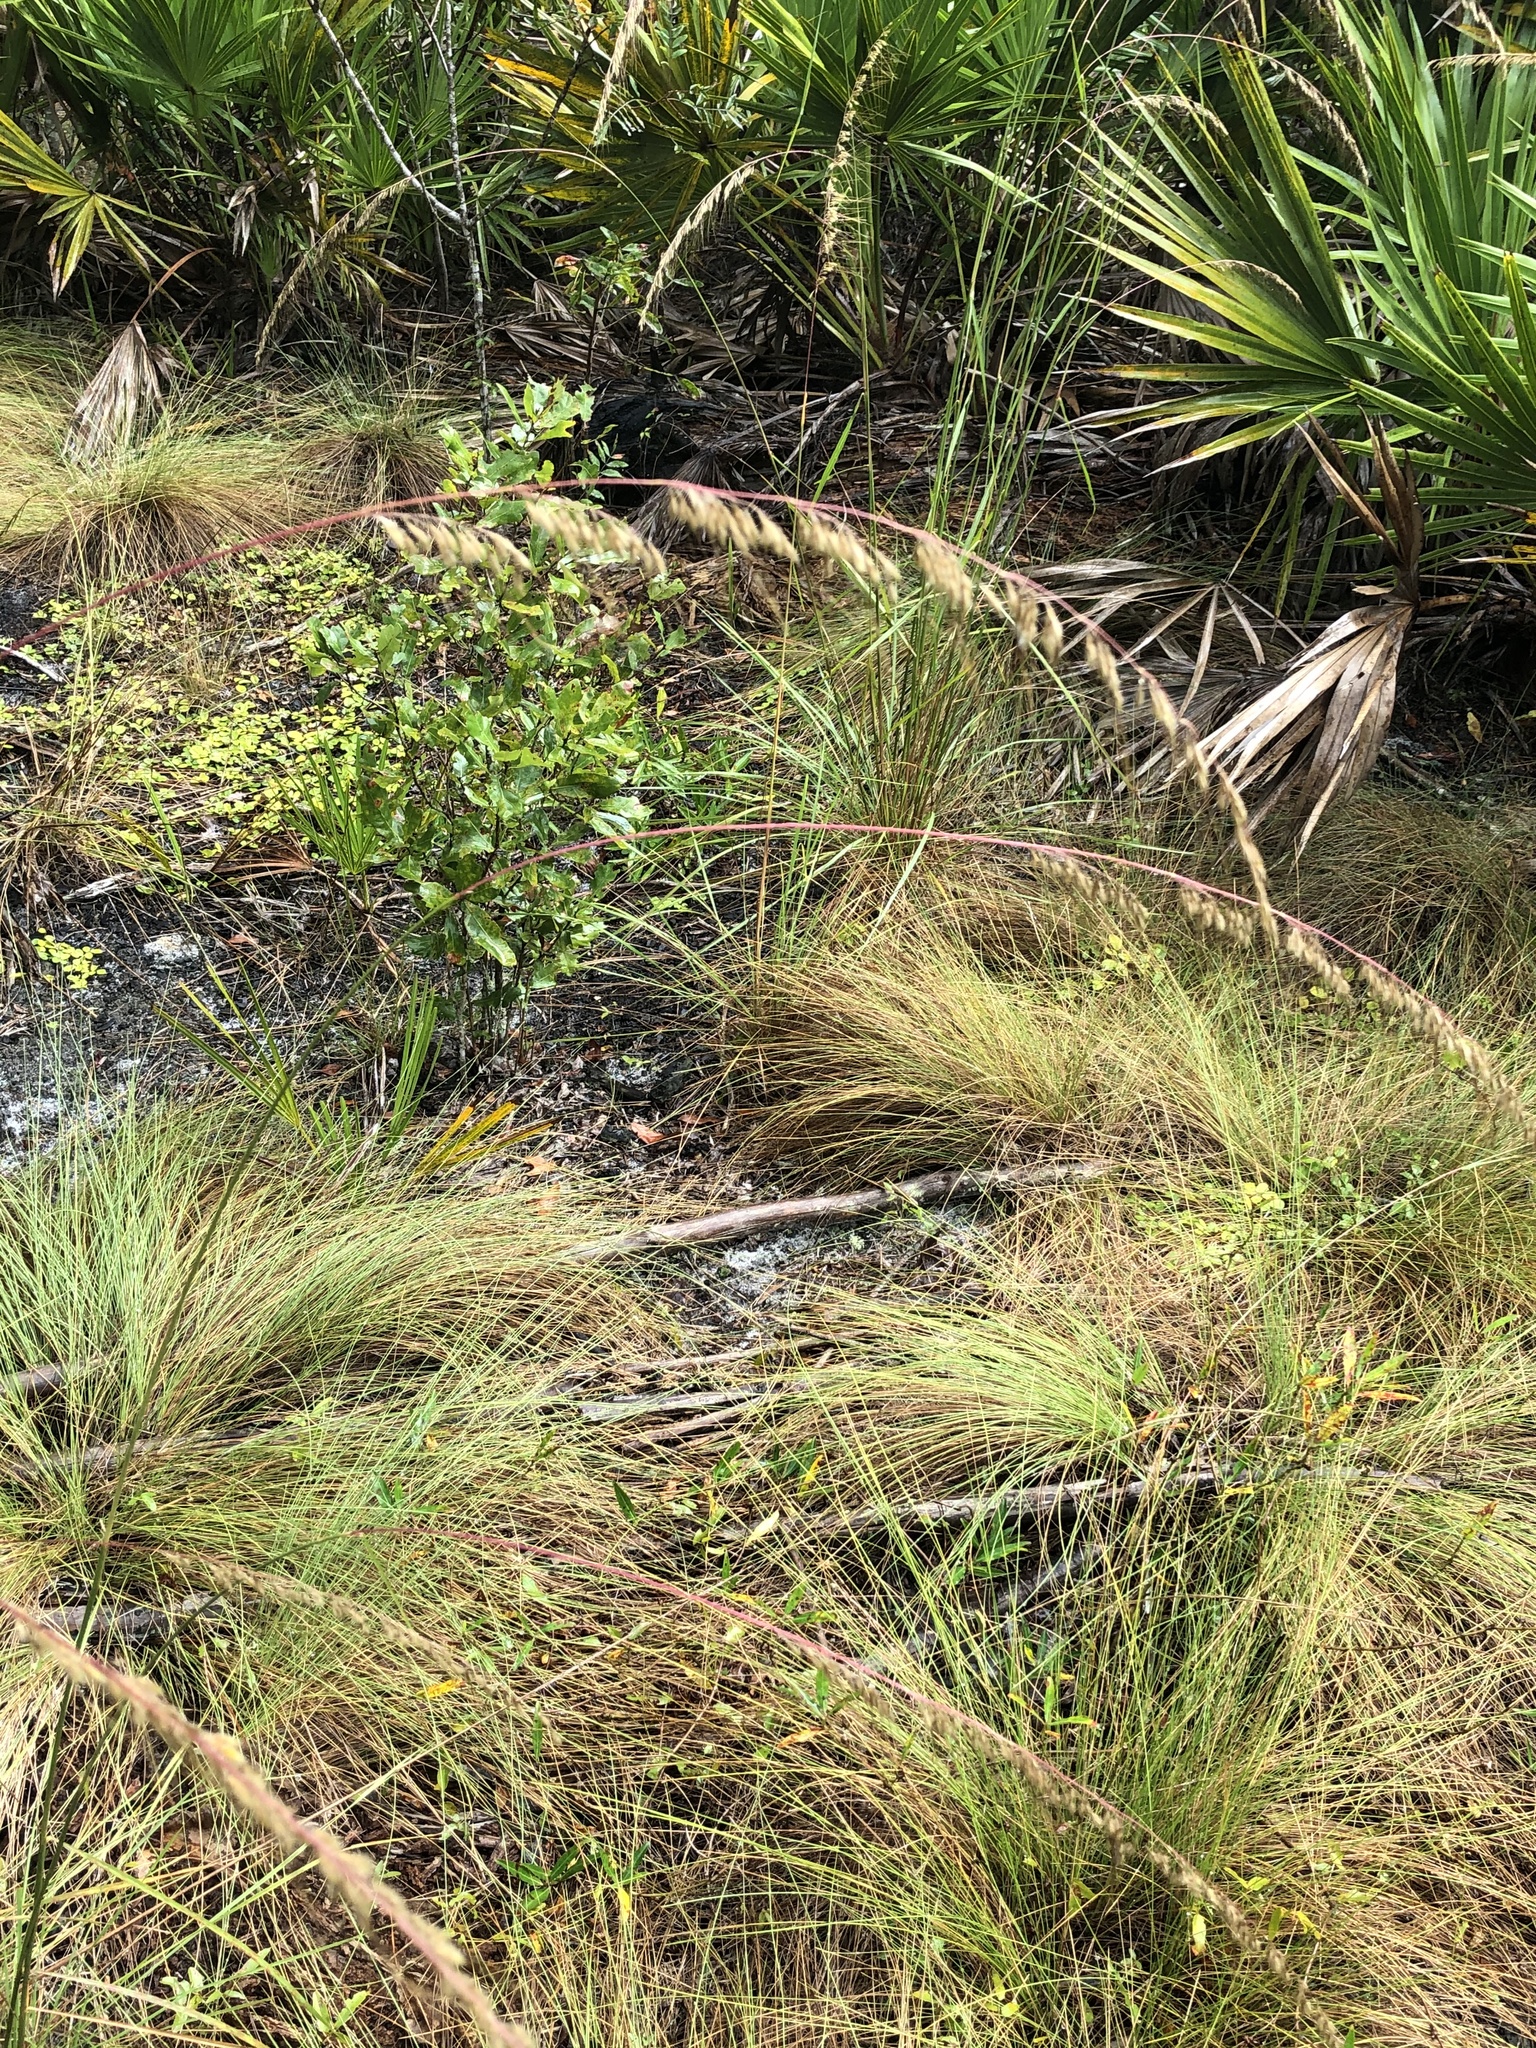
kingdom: Plantae
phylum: Tracheophyta
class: Liliopsida
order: Poales
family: Poaceae
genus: Sorghastrum
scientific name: Sorghastrum secundum
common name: Lopsided indian grass
